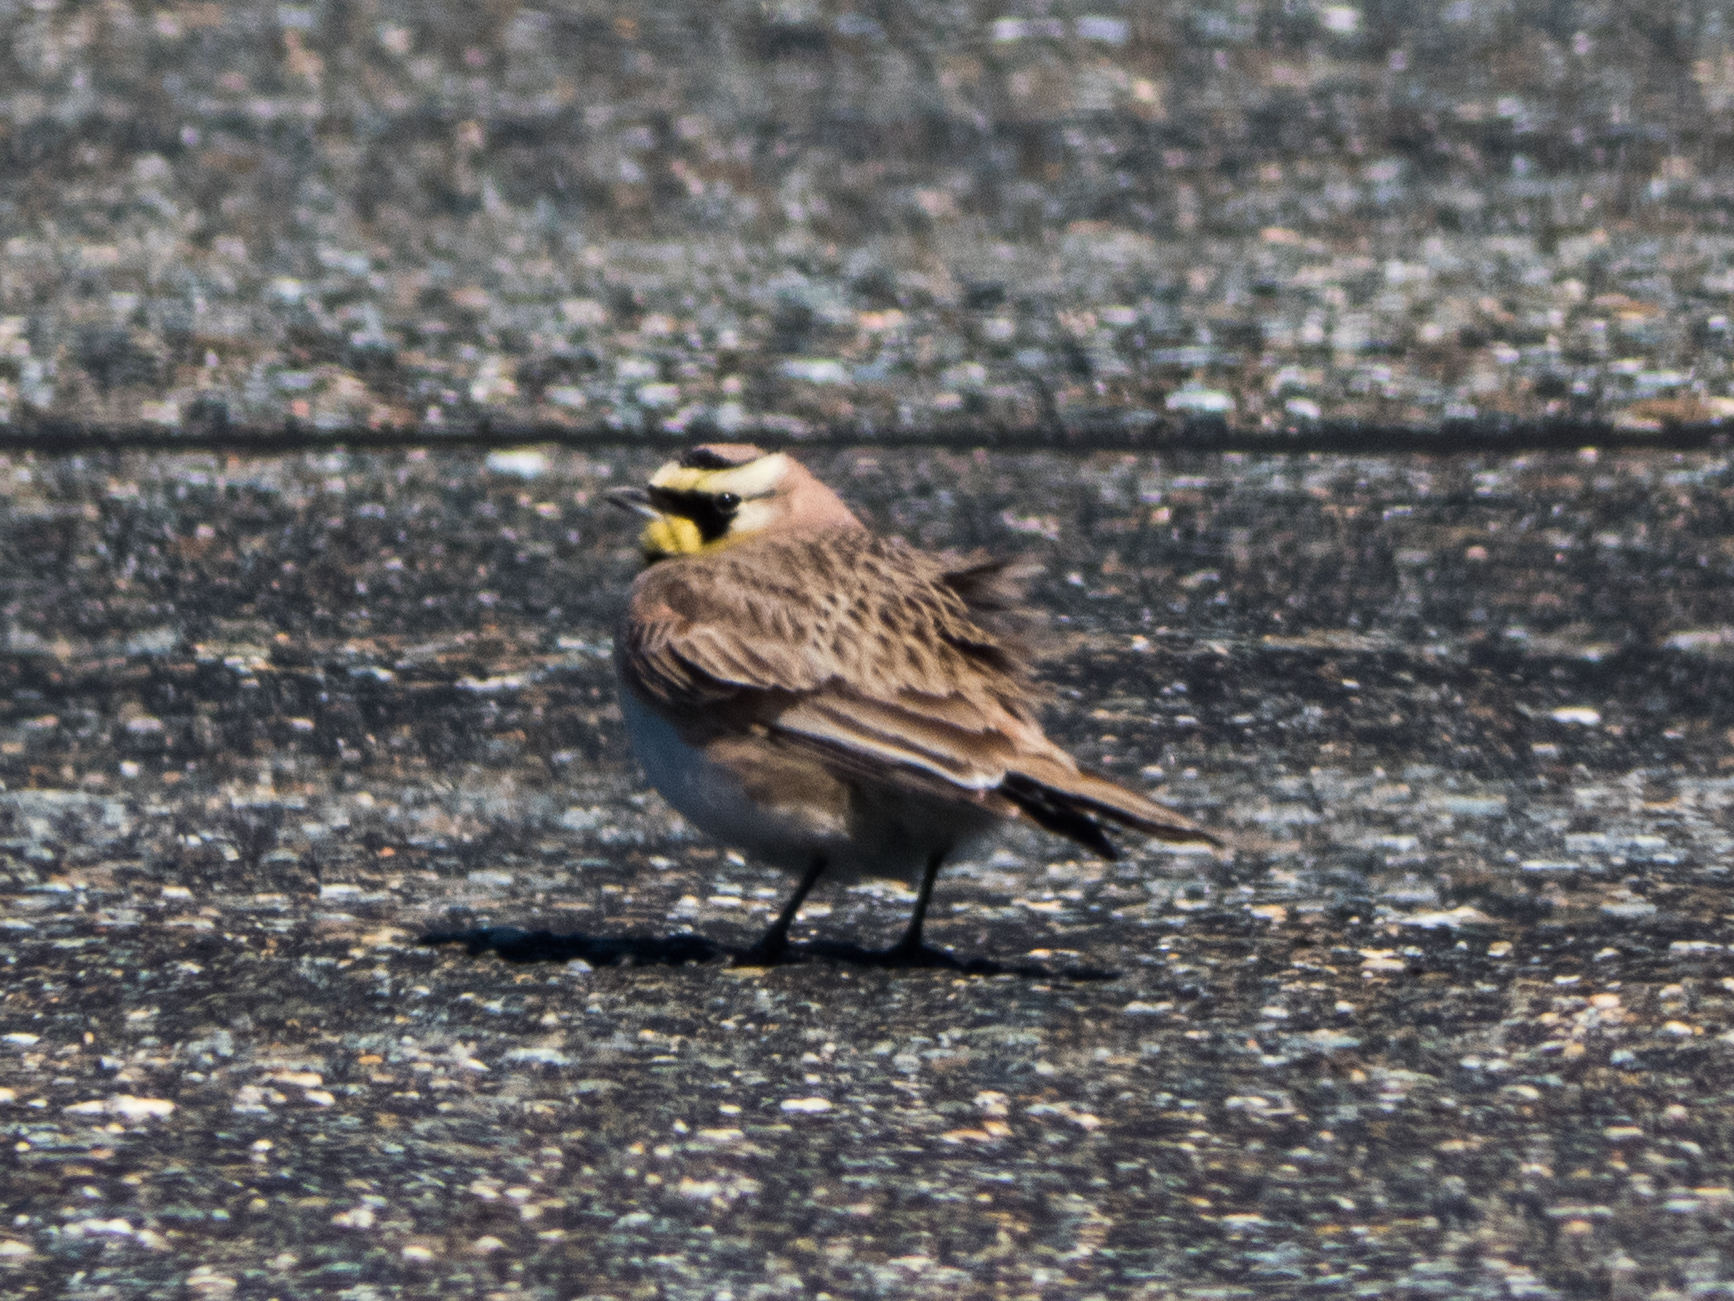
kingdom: Animalia
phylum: Chordata
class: Aves
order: Passeriformes
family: Alaudidae
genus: Eremophila
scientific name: Eremophila alpestris
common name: Horned lark
